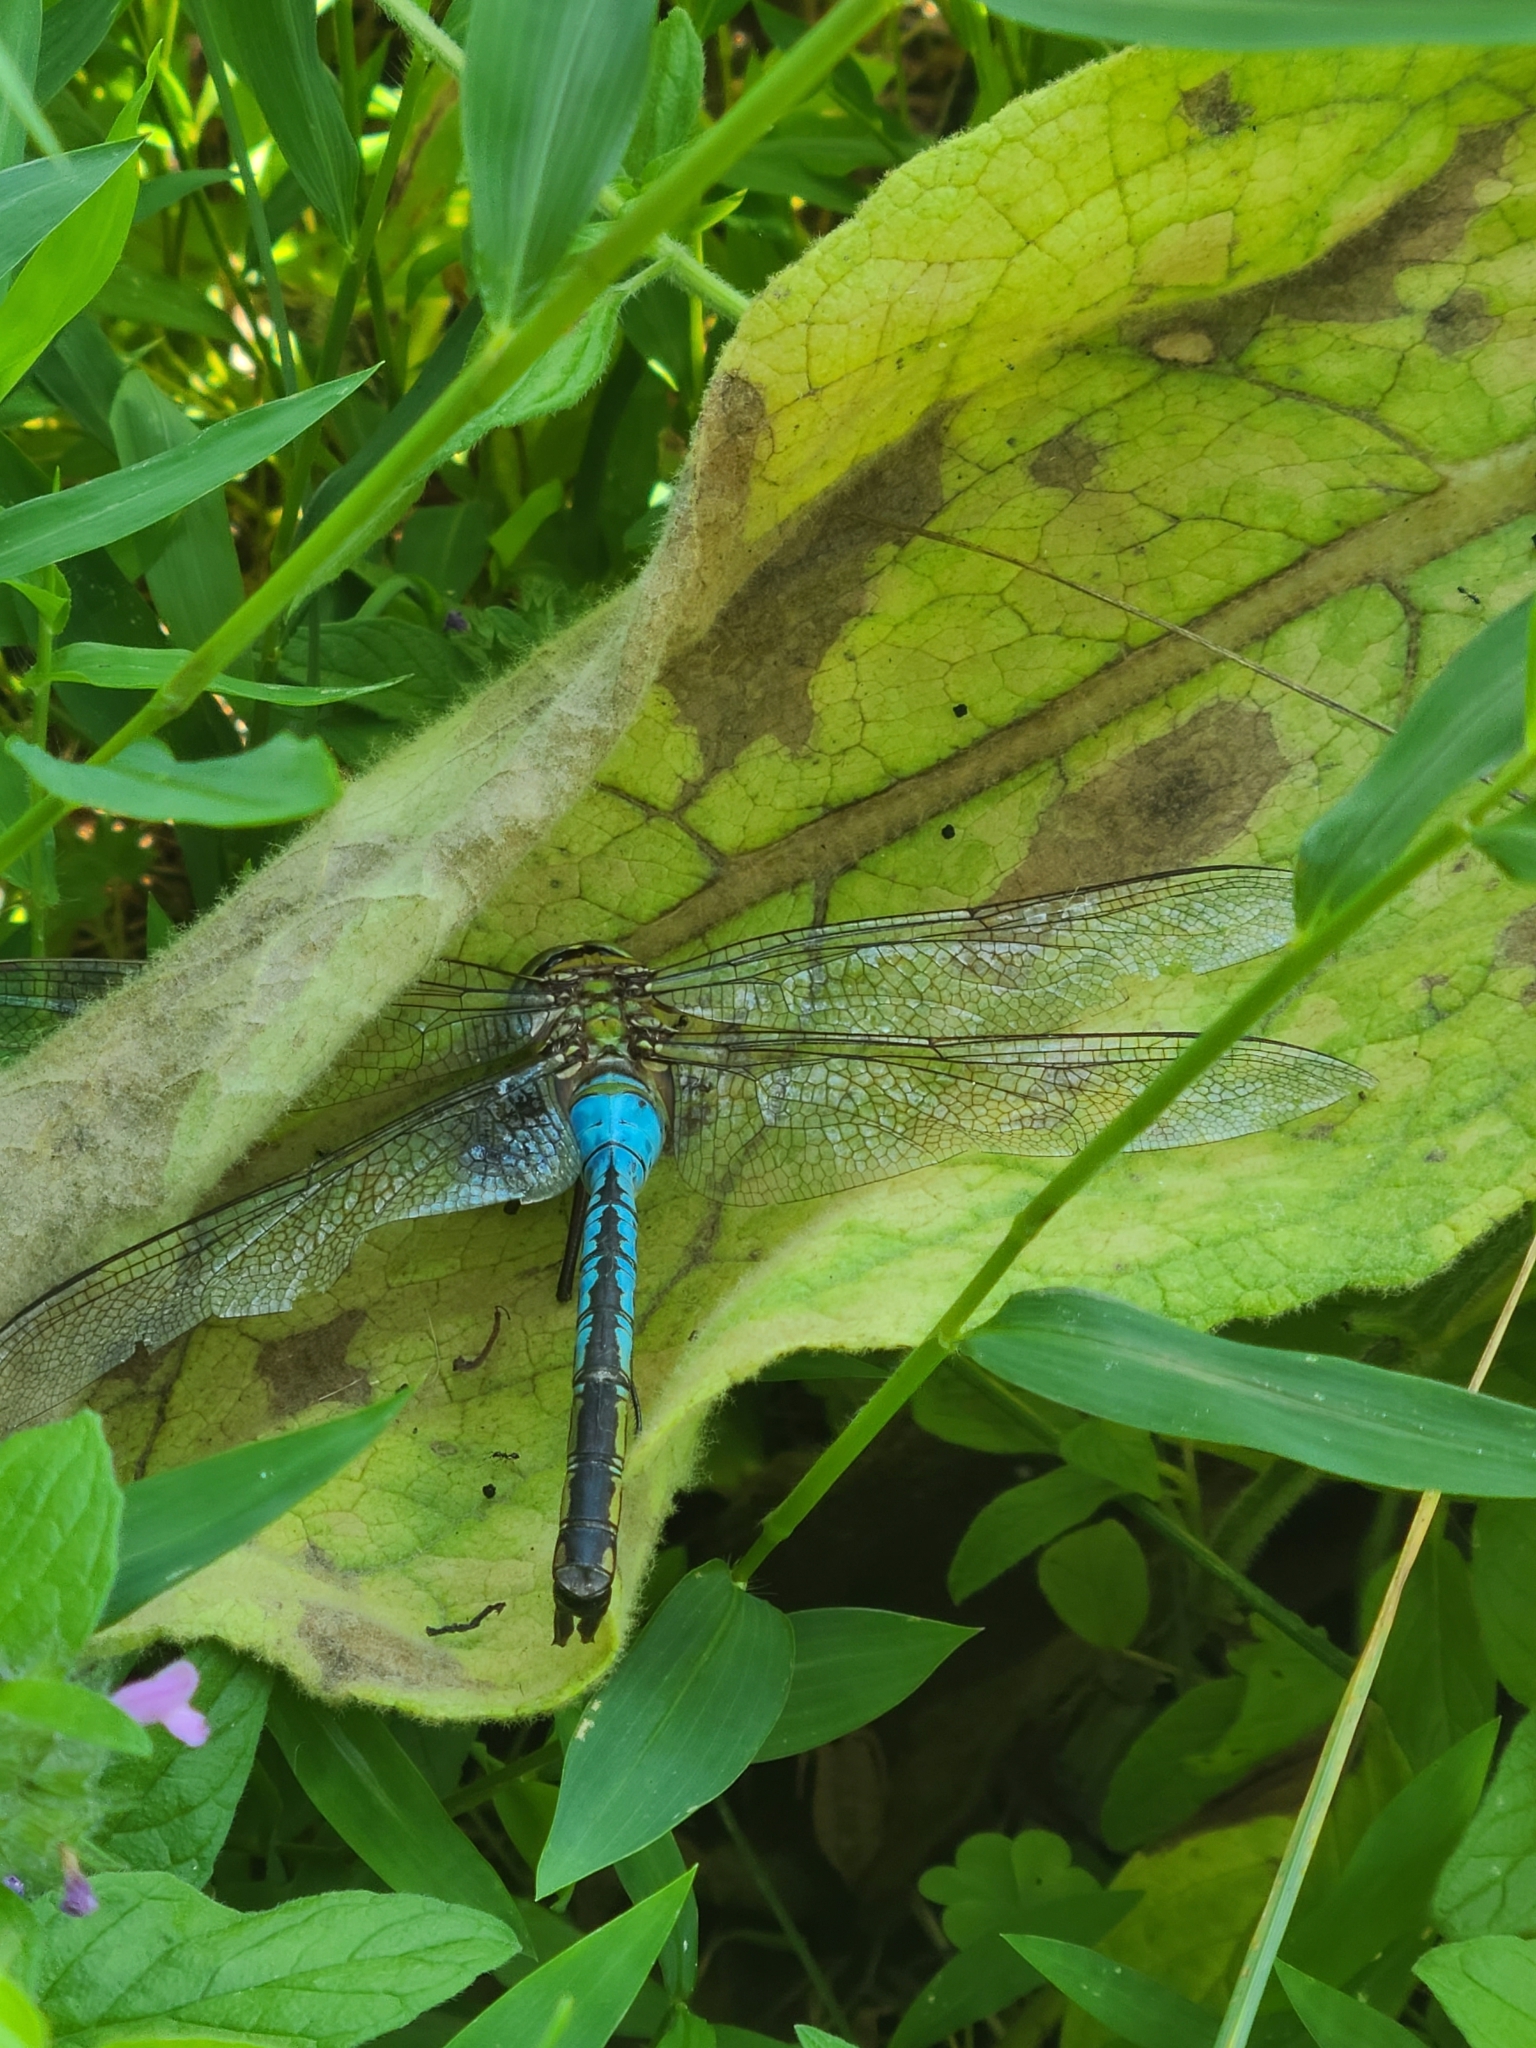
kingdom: Animalia
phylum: Arthropoda
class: Insecta
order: Odonata
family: Aeshnidae
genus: Anax
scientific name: Anax junius
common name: Common green darner
